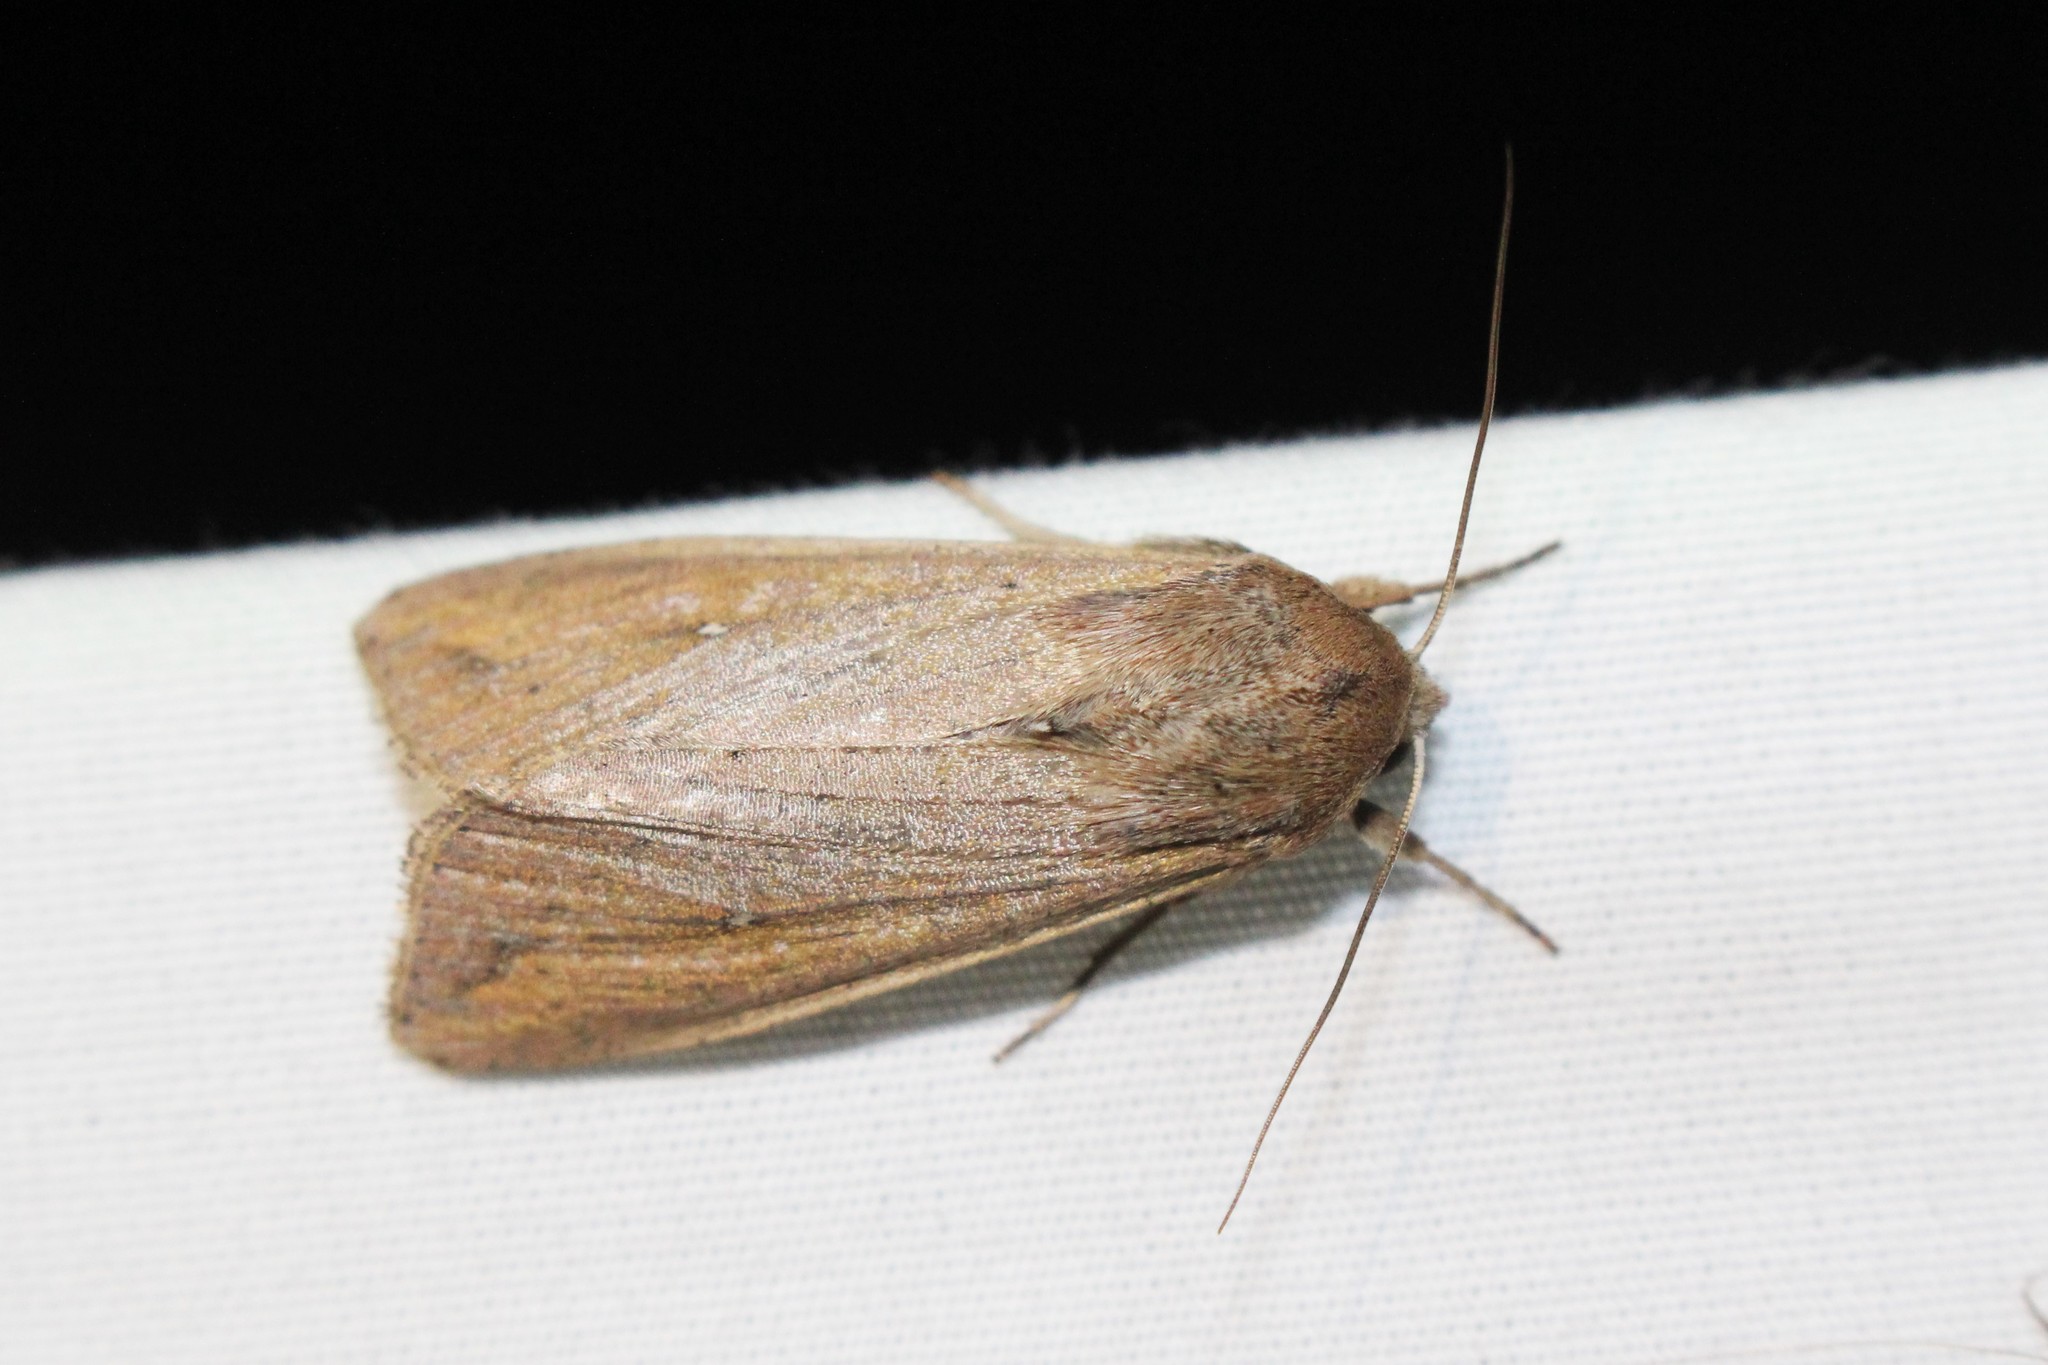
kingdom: Animalia
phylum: Arthropoda
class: Insecta
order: Lepidoptera
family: Noctuidae
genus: Mythimna
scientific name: Mythimna unipuncta
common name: White-speck
